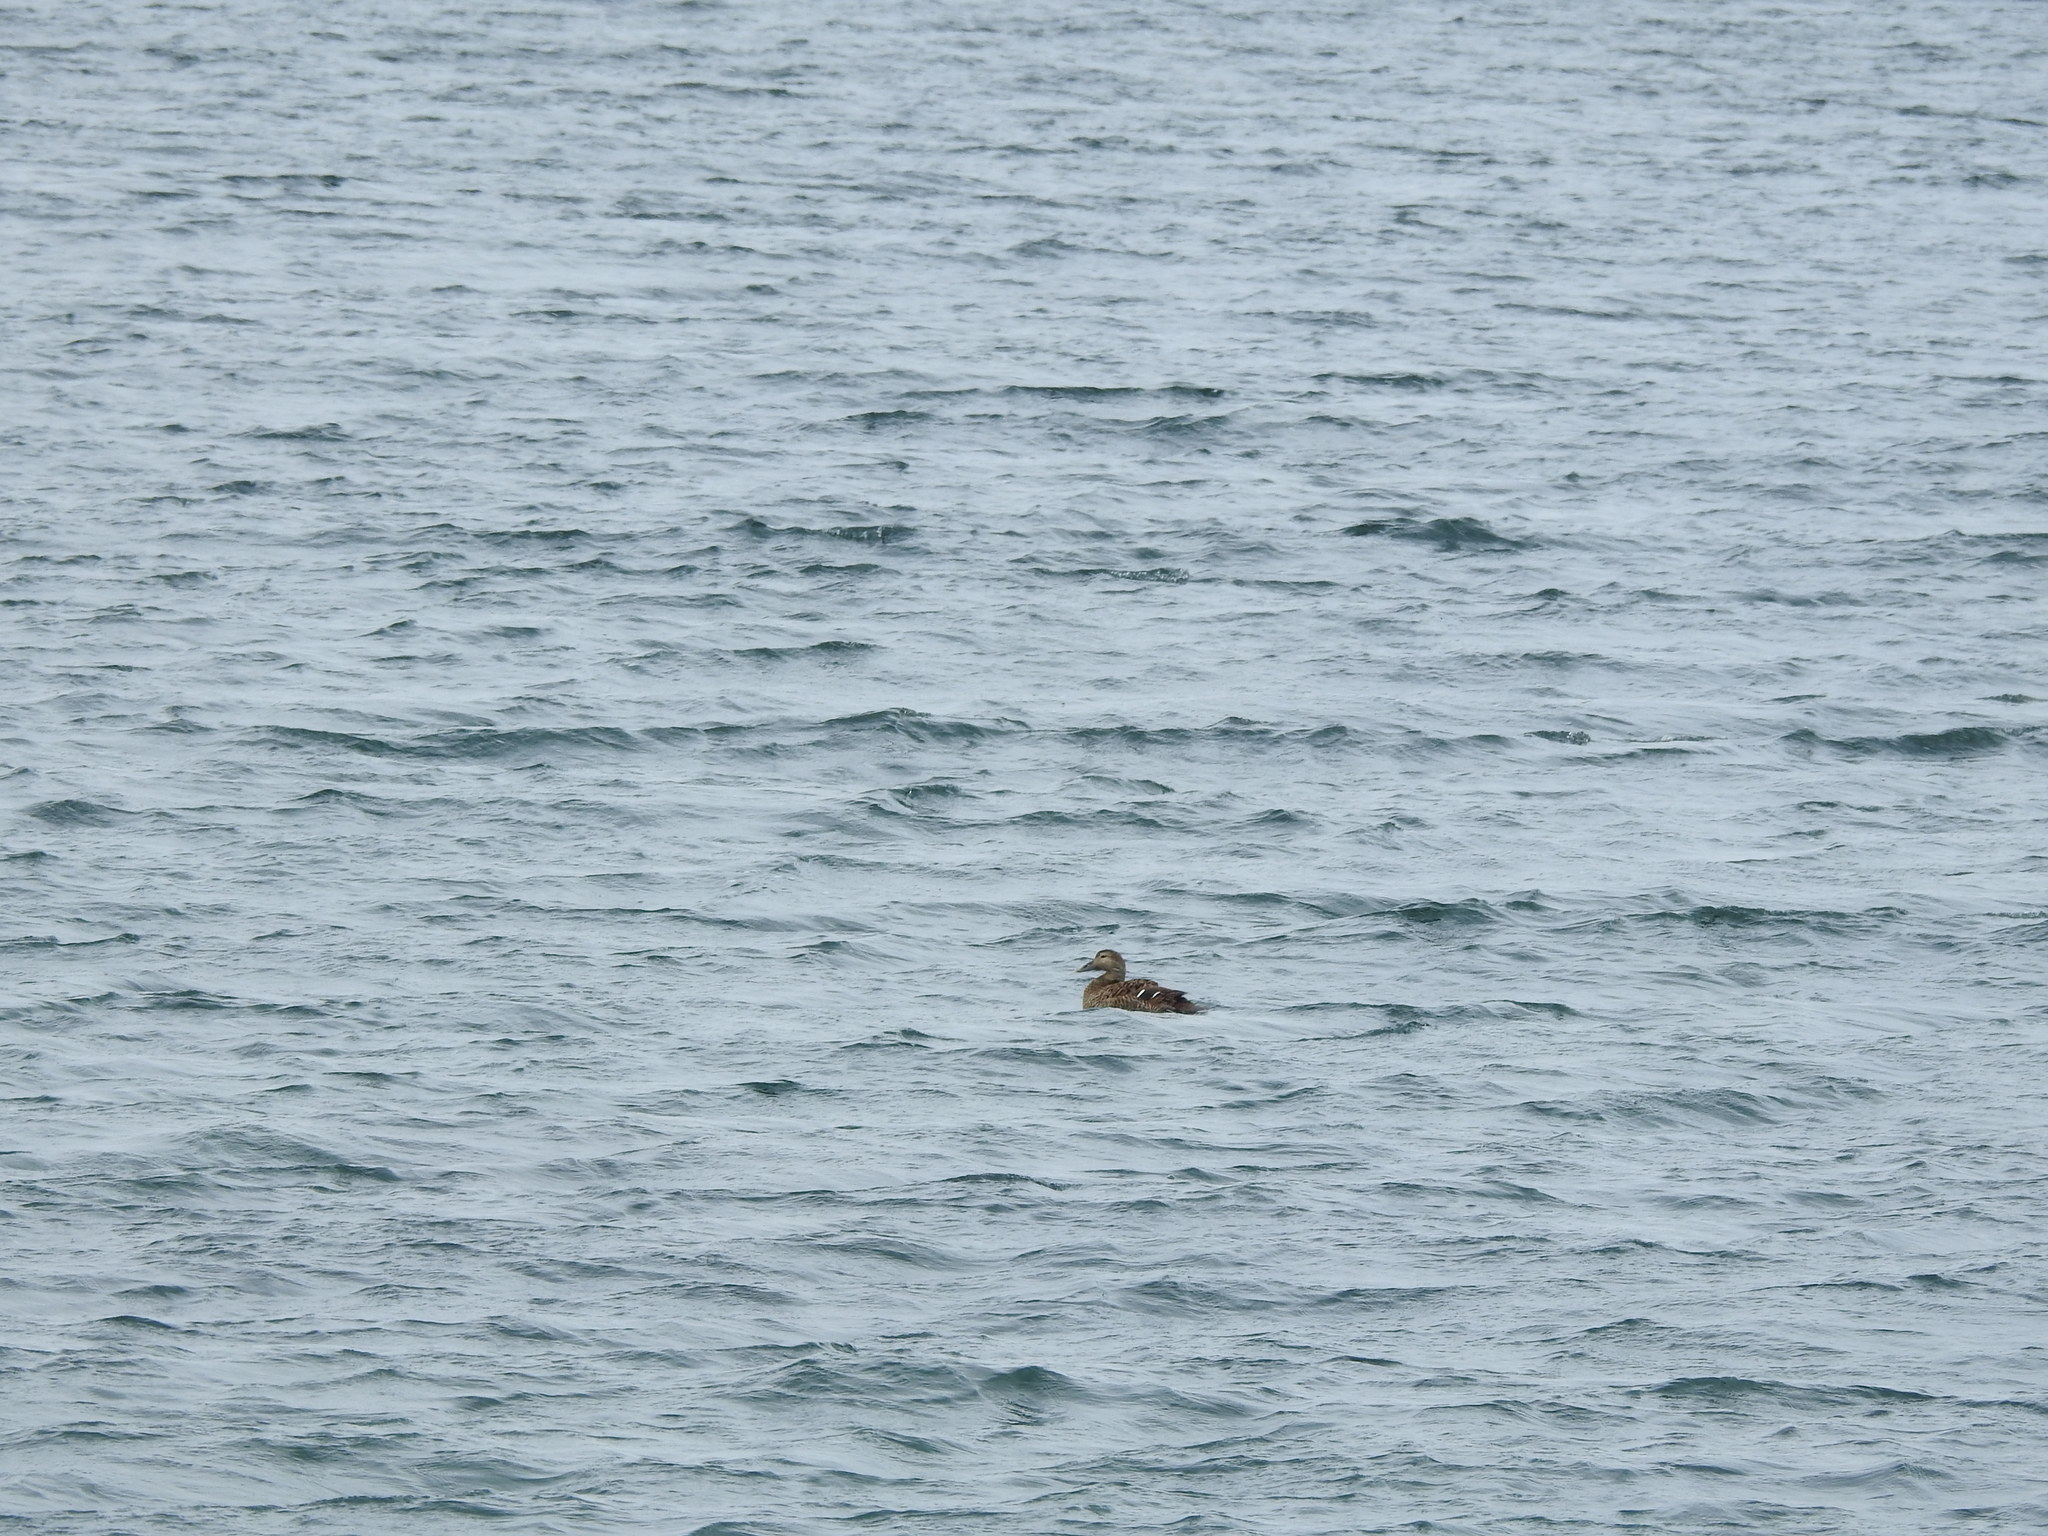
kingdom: Animalia
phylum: Chordata
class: Aves
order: Anseriformes
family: Anatidae
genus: Somateria
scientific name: Somateria mollissima
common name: Common eider
